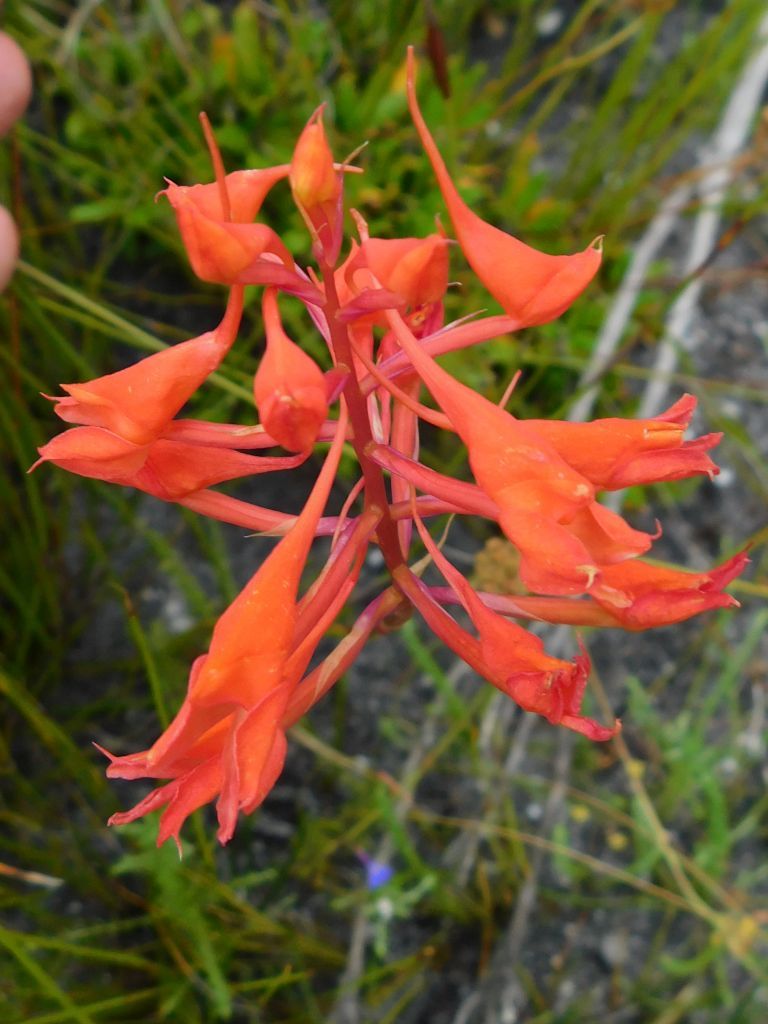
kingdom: Plantae
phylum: Tracheophyta
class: Liliopsida
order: Asparagales
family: Orchidaceae
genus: Disa
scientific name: Disa ferruginea
